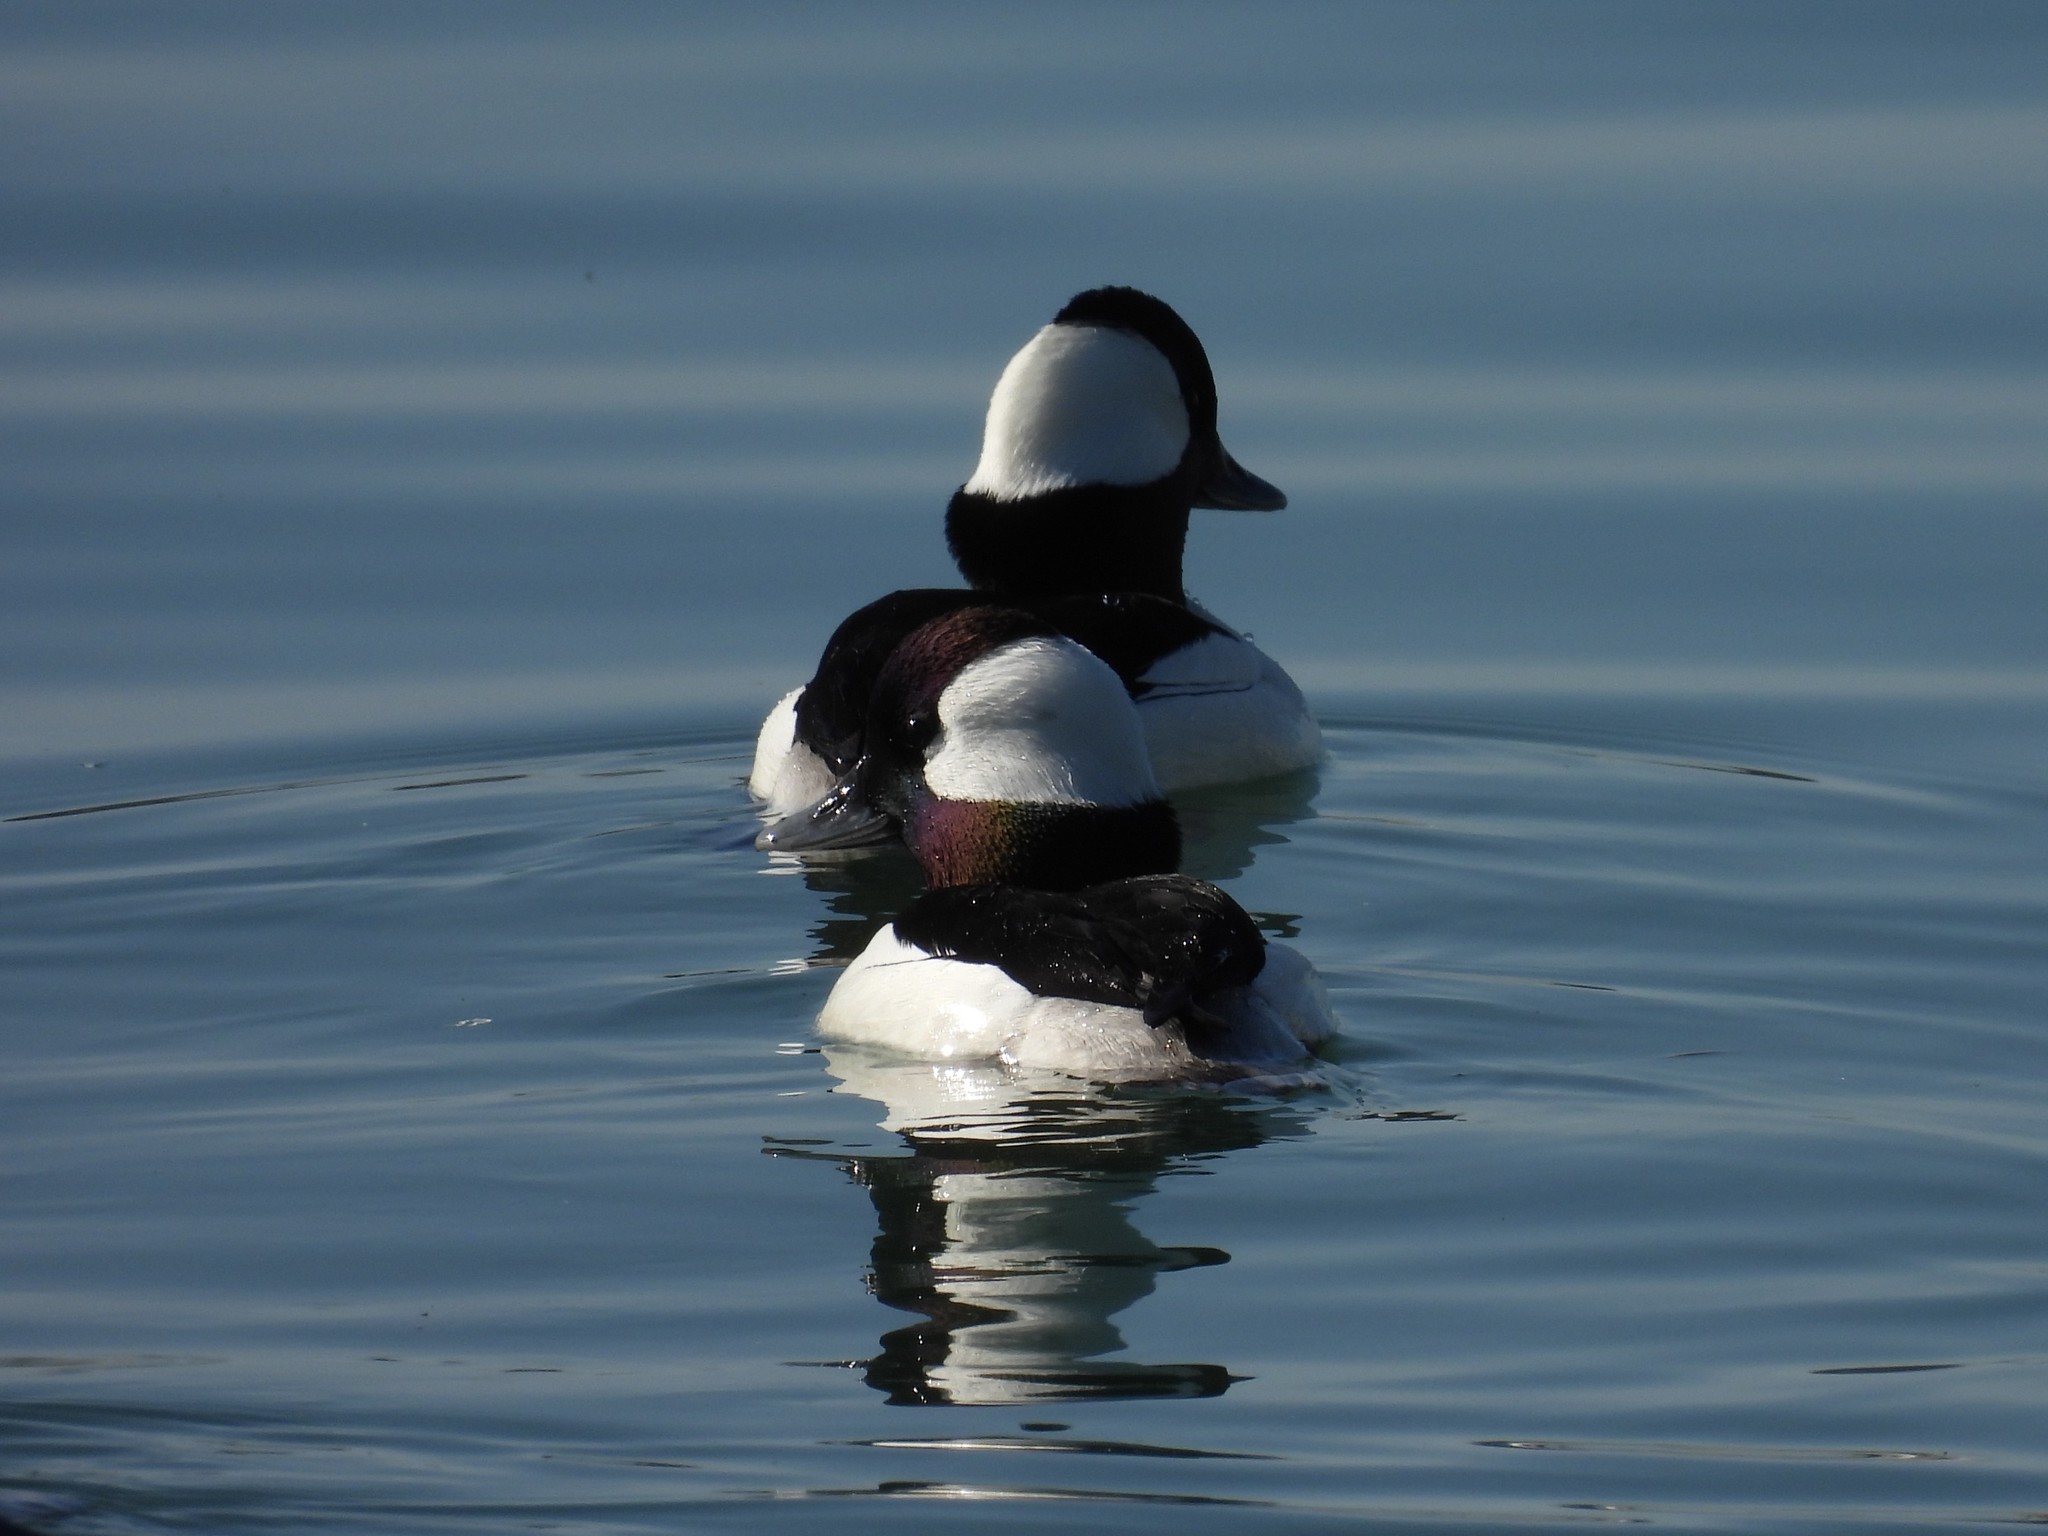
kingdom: Animalia
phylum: Chordata
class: Aves
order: Anseriformes
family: Anatidae
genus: Bucephala
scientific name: Bucephala albeola
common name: Bufflehead
